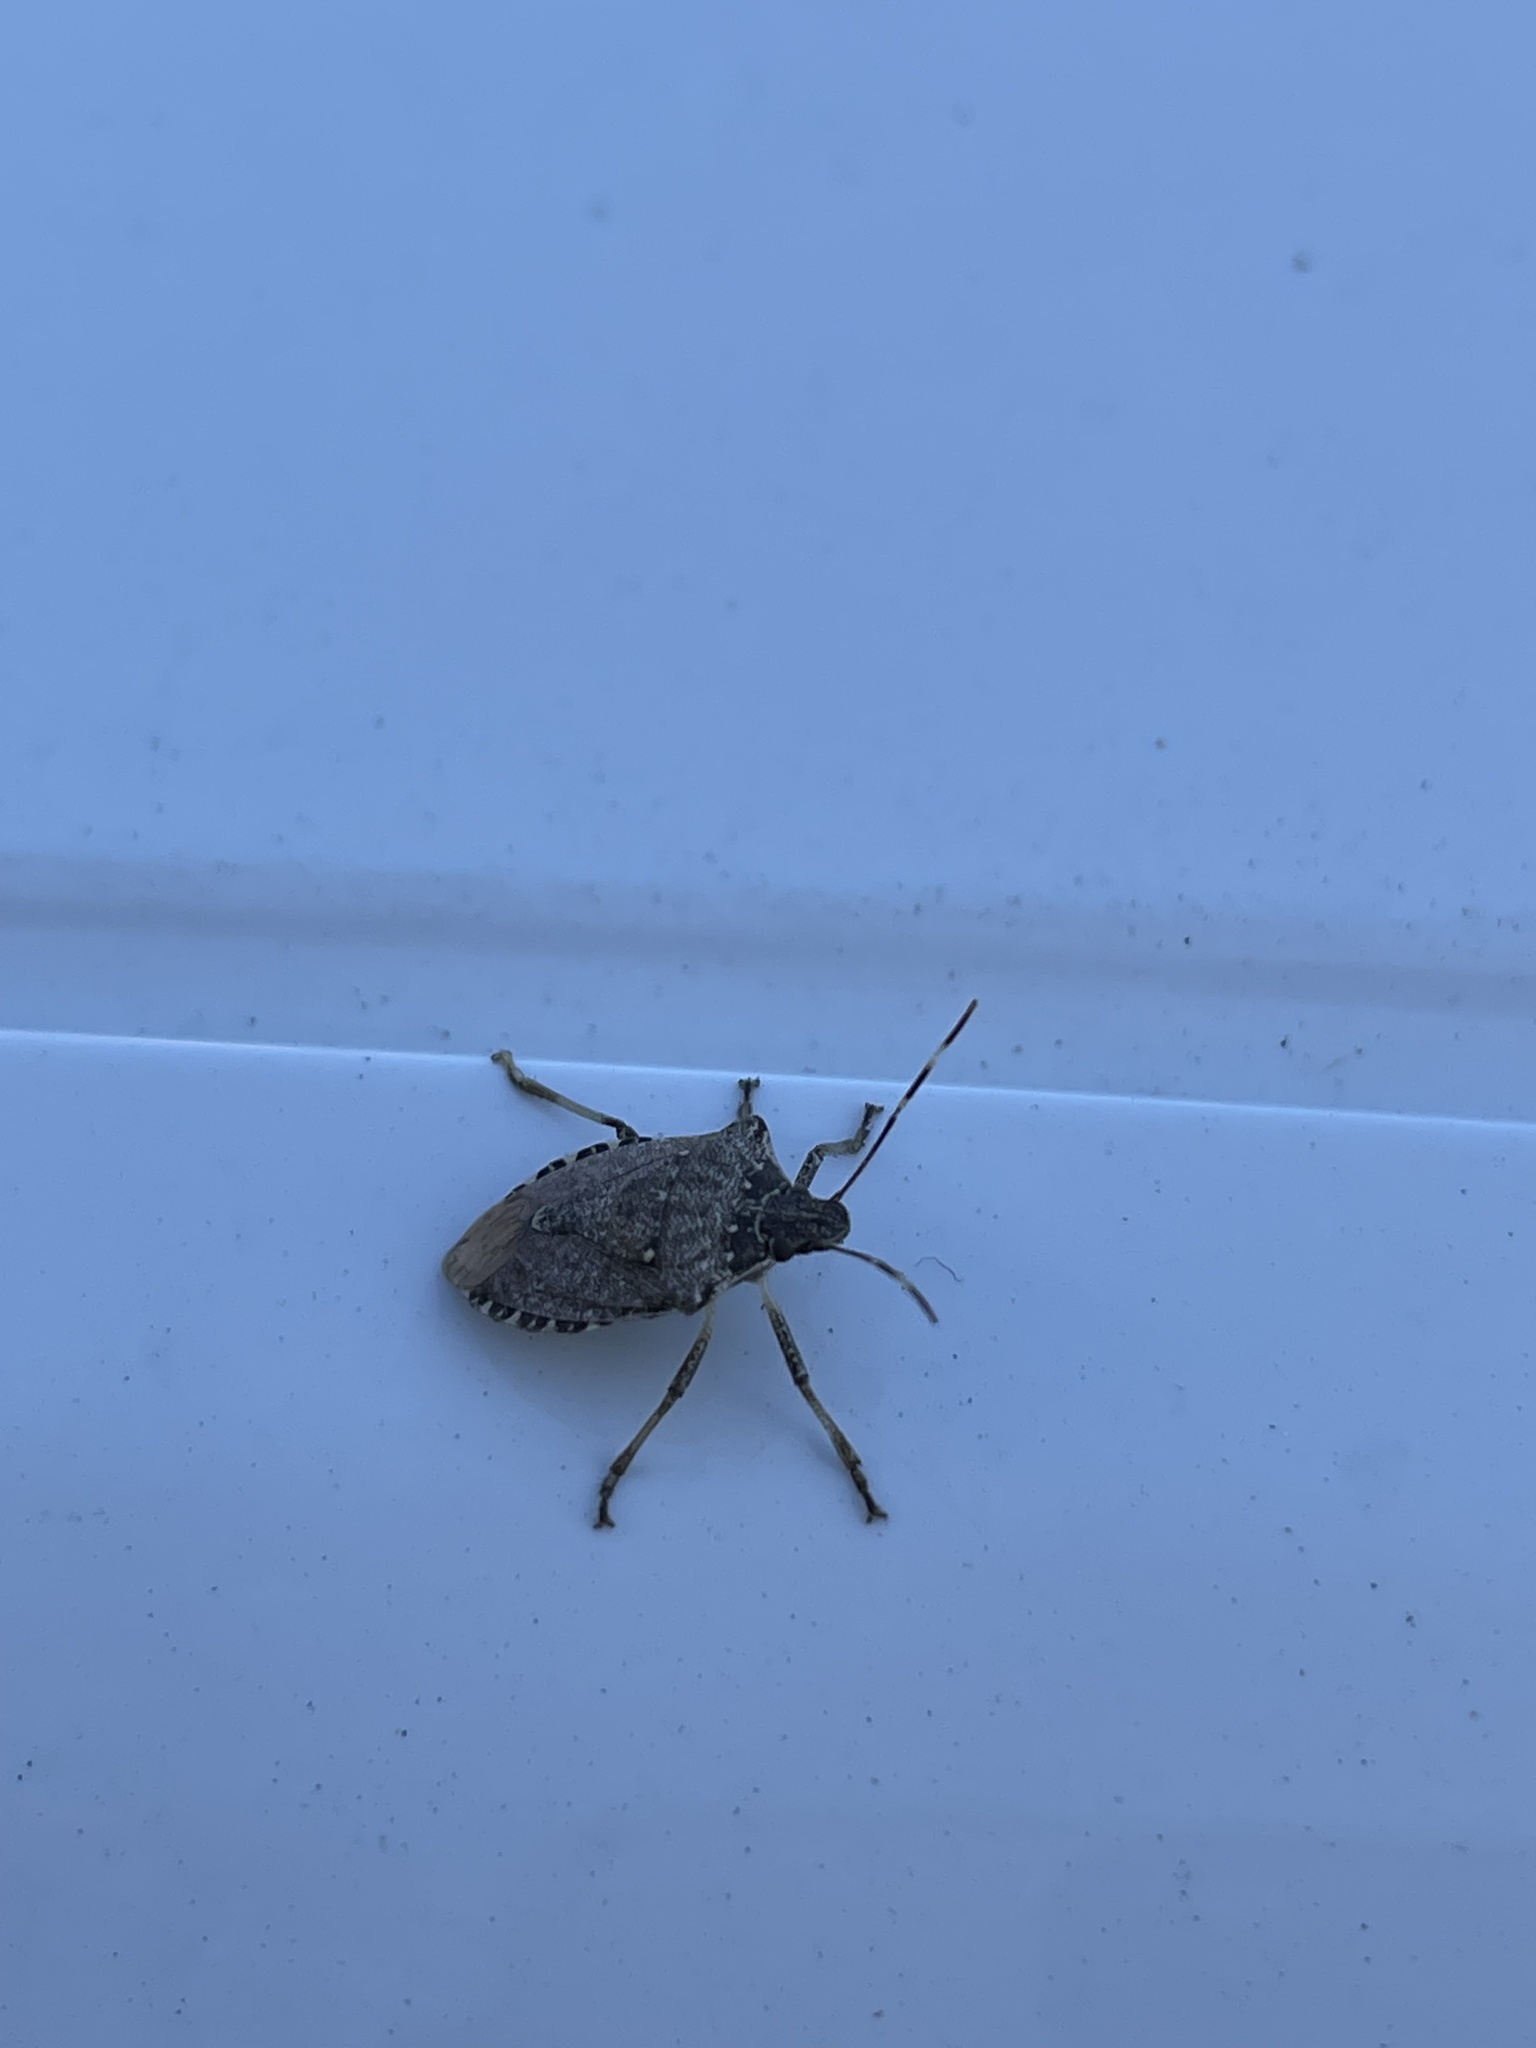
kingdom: Animalia
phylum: Arthropoda
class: Insecta
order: Hemiptera
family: Pentatomidae
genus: Halyomorpha
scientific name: Halyomorpha halys
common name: Brown marmorated stink bug
